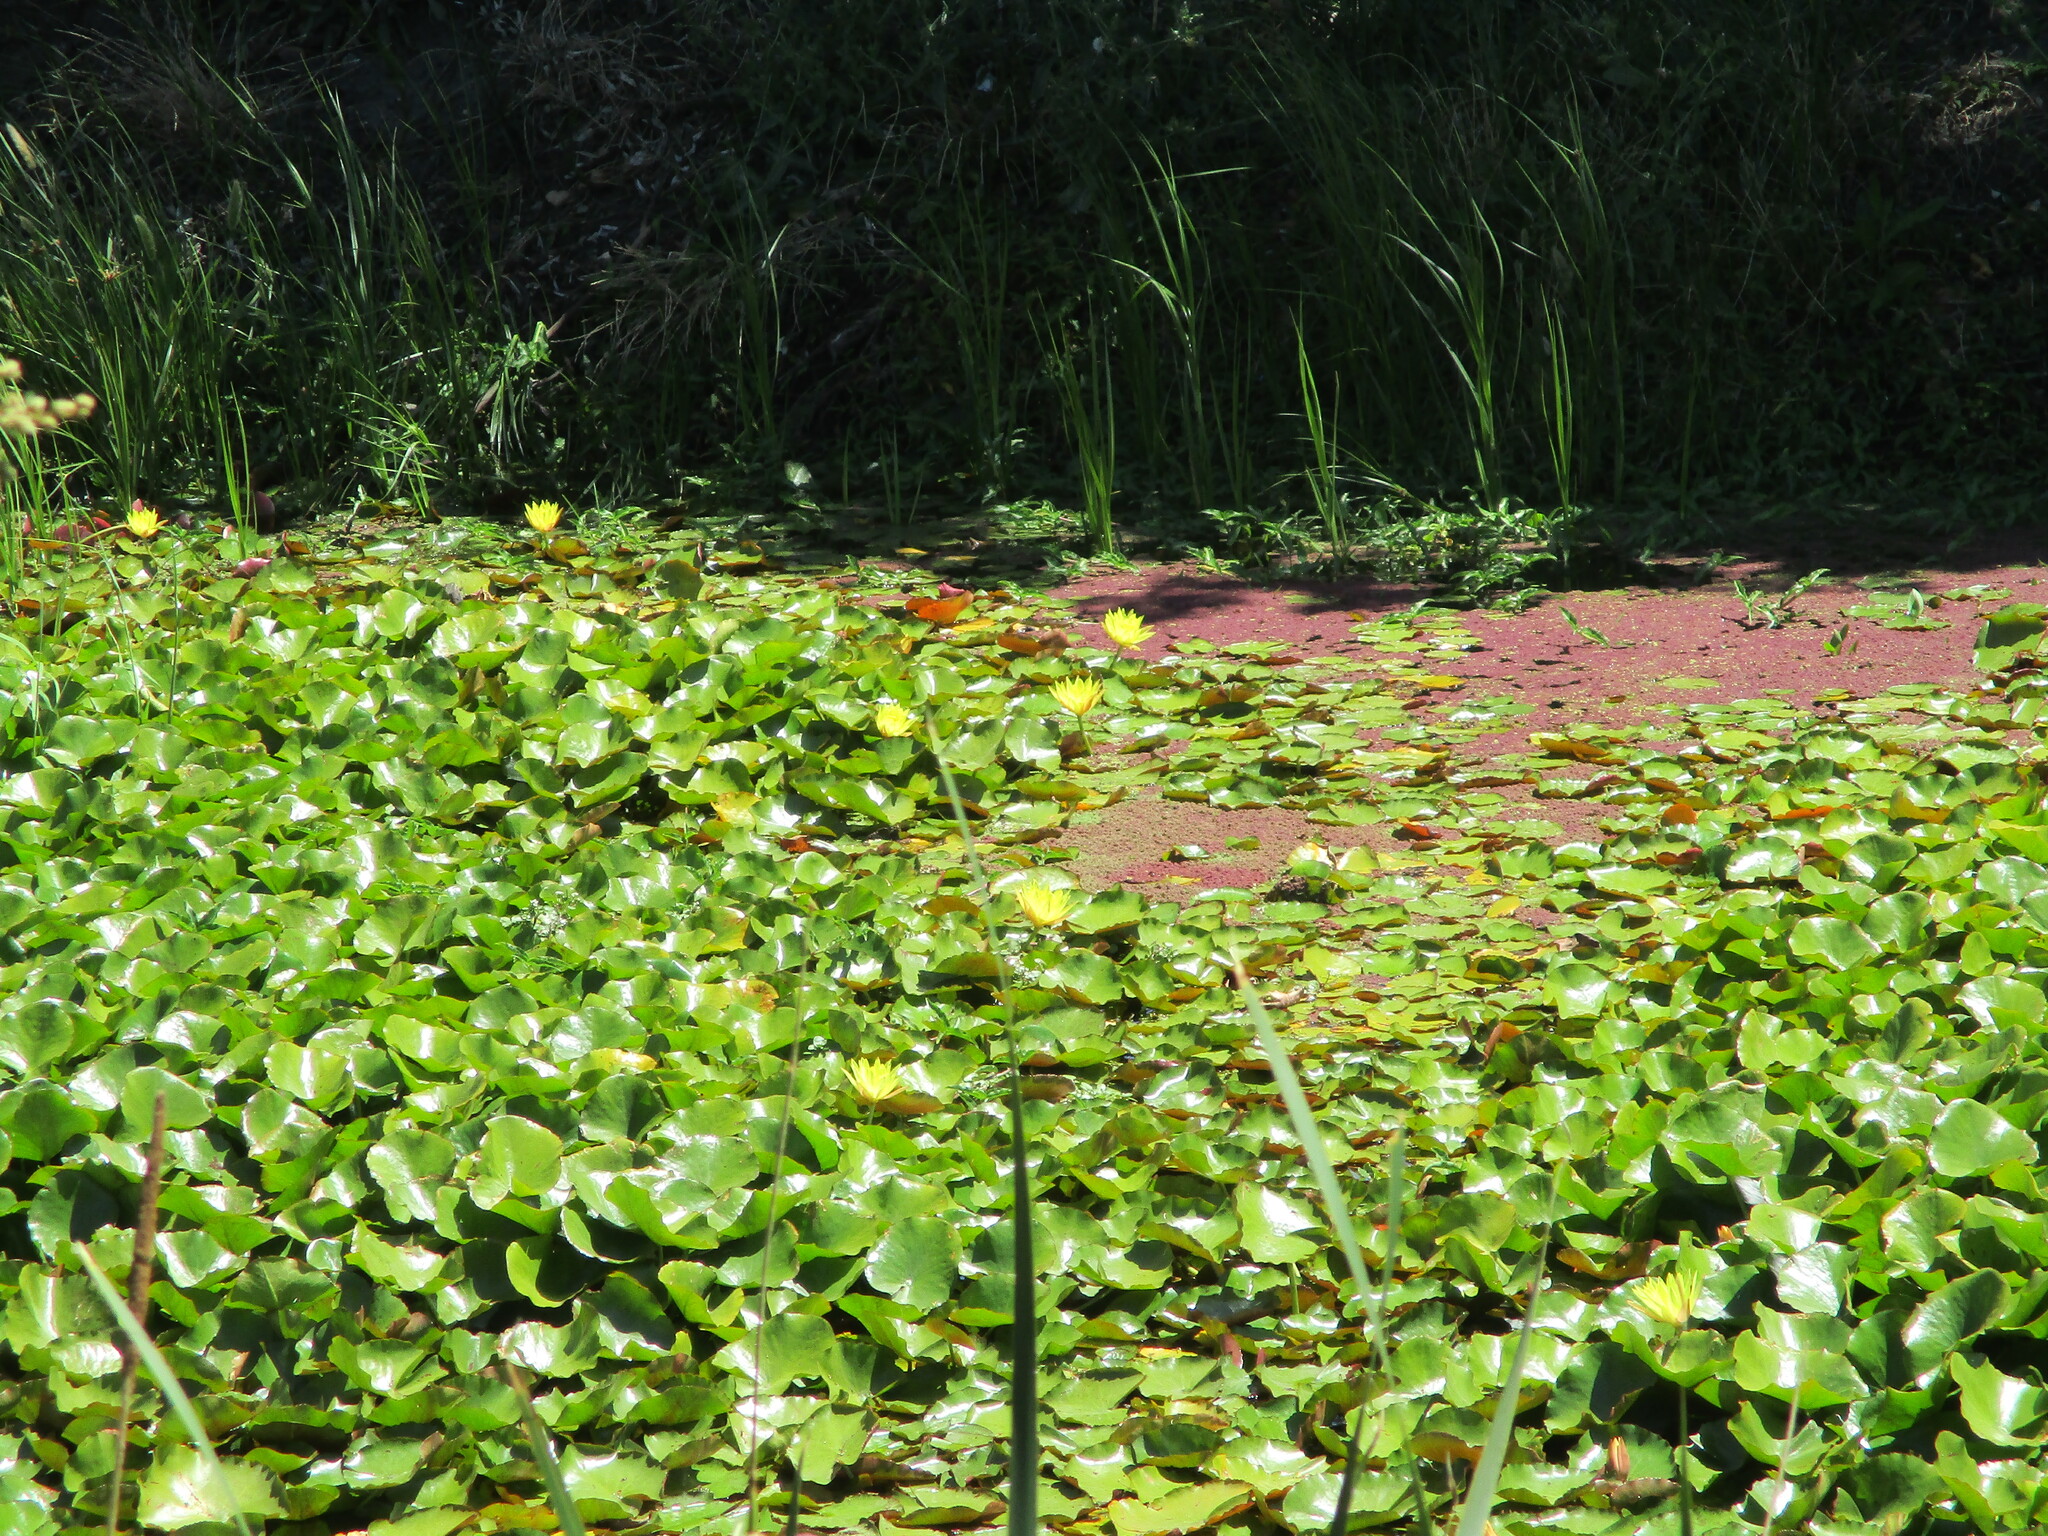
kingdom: Plantae
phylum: Tracheophyta
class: Magnoliopsida
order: Nymphaeales
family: Nymphaeaceae
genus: Nymphaea
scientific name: Nymphaea mexicana
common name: Banana water-lily
